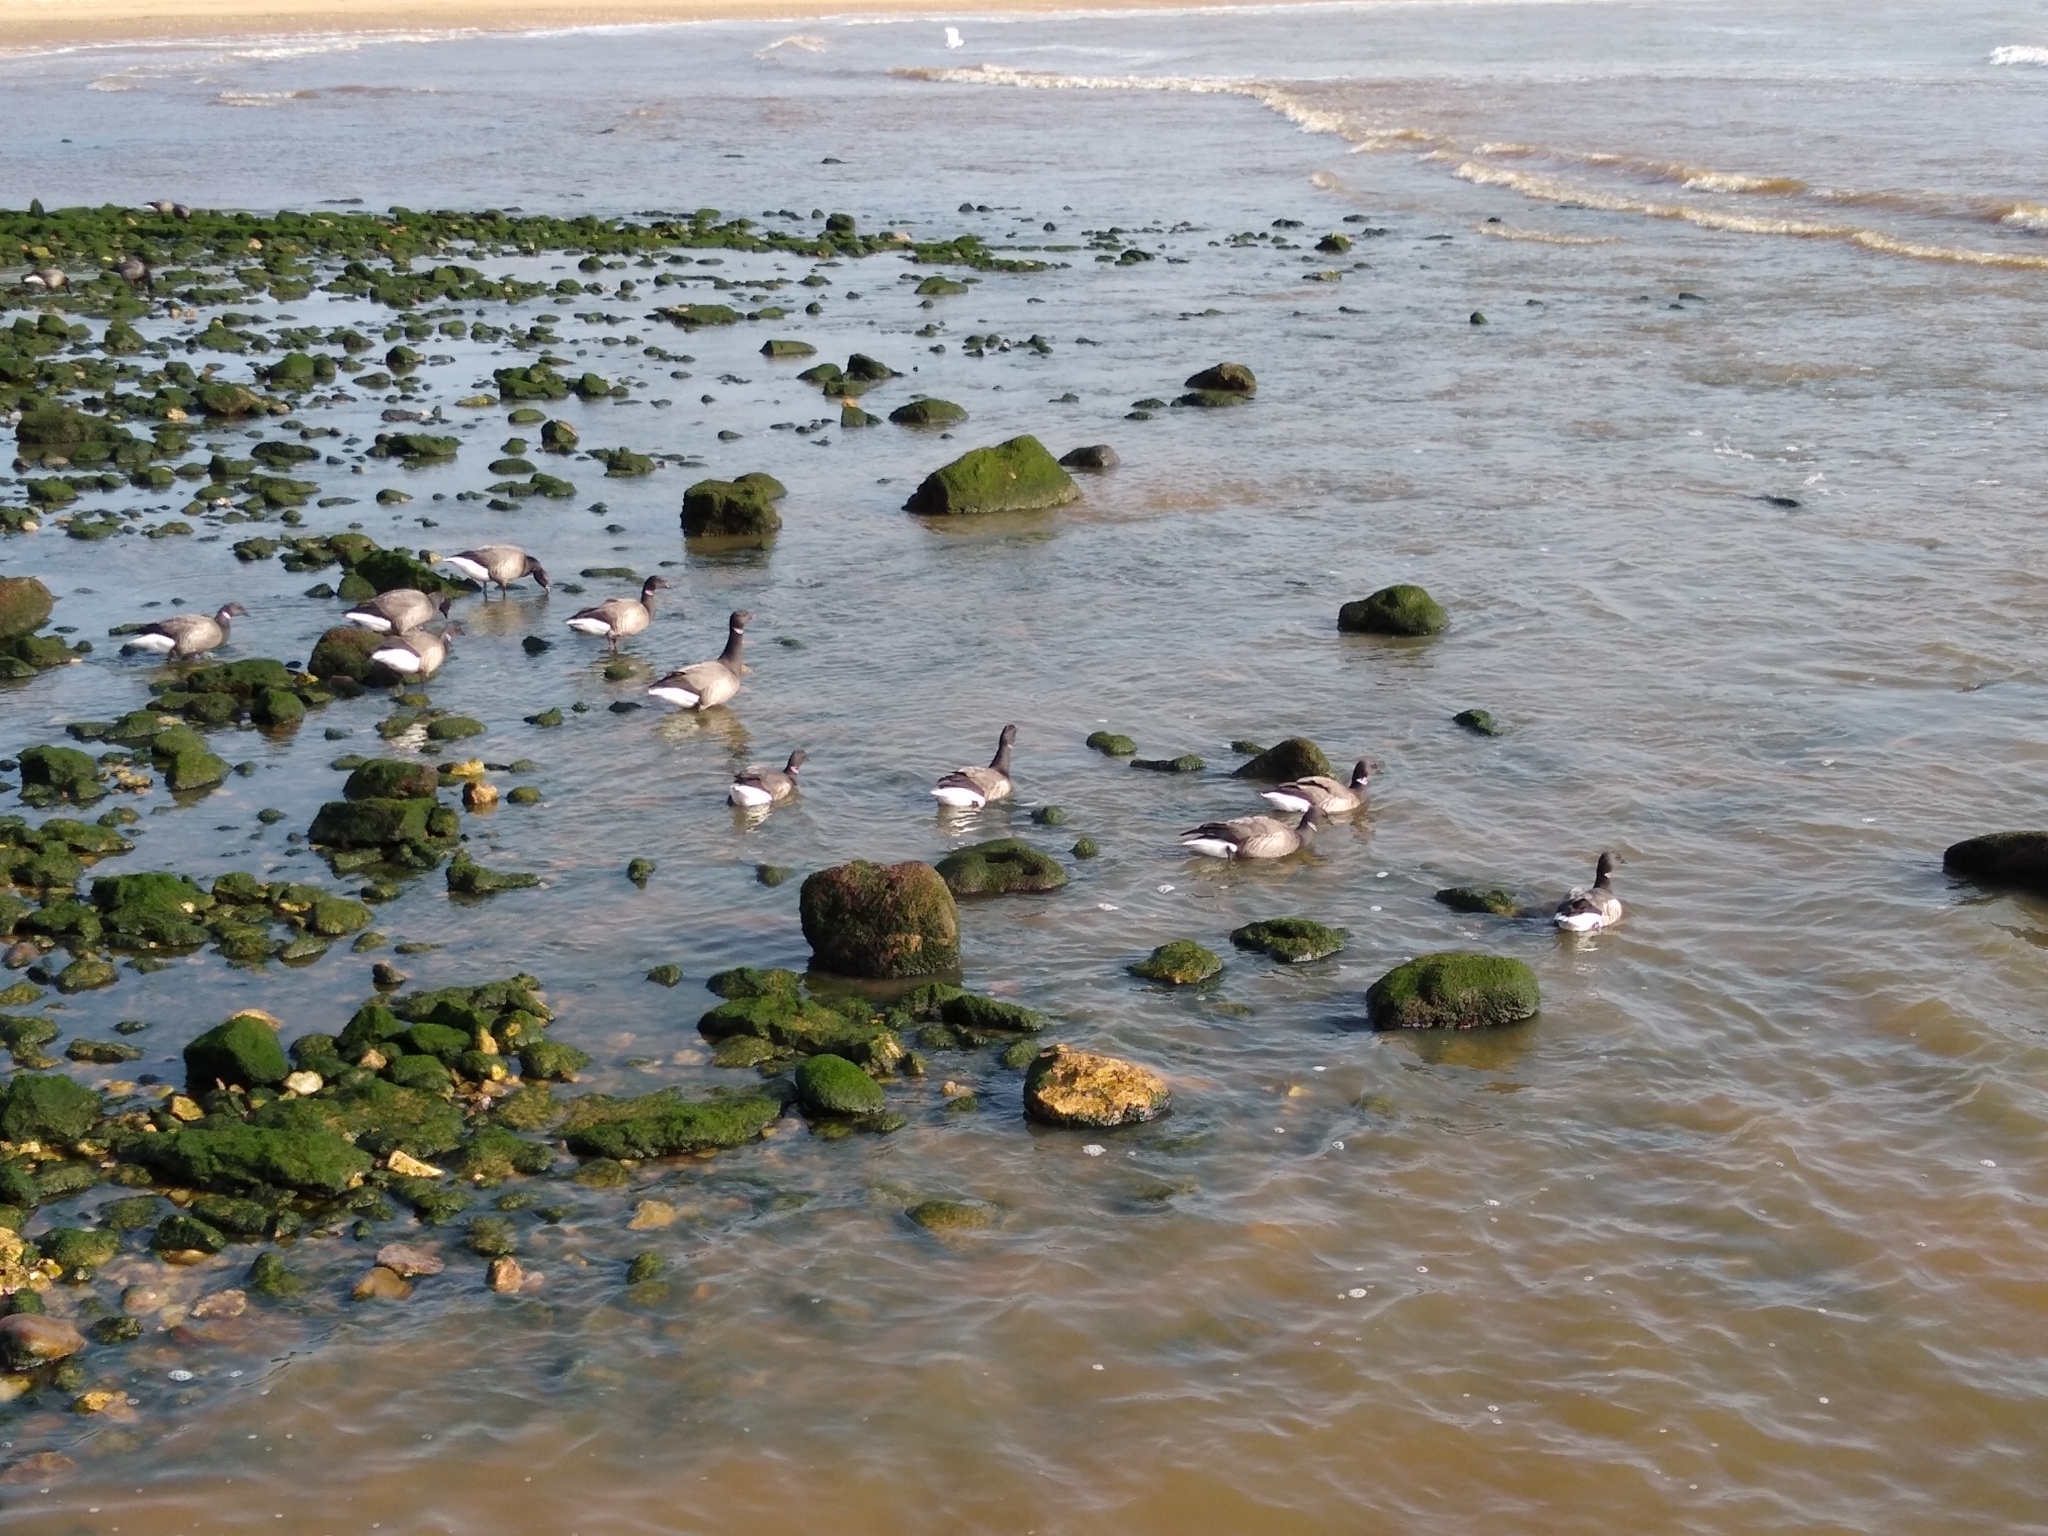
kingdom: Animalia
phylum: Chordata
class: Aves
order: Anseriformes
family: Anatidae
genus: Branta
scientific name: Branta bernicla
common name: Brant goose
